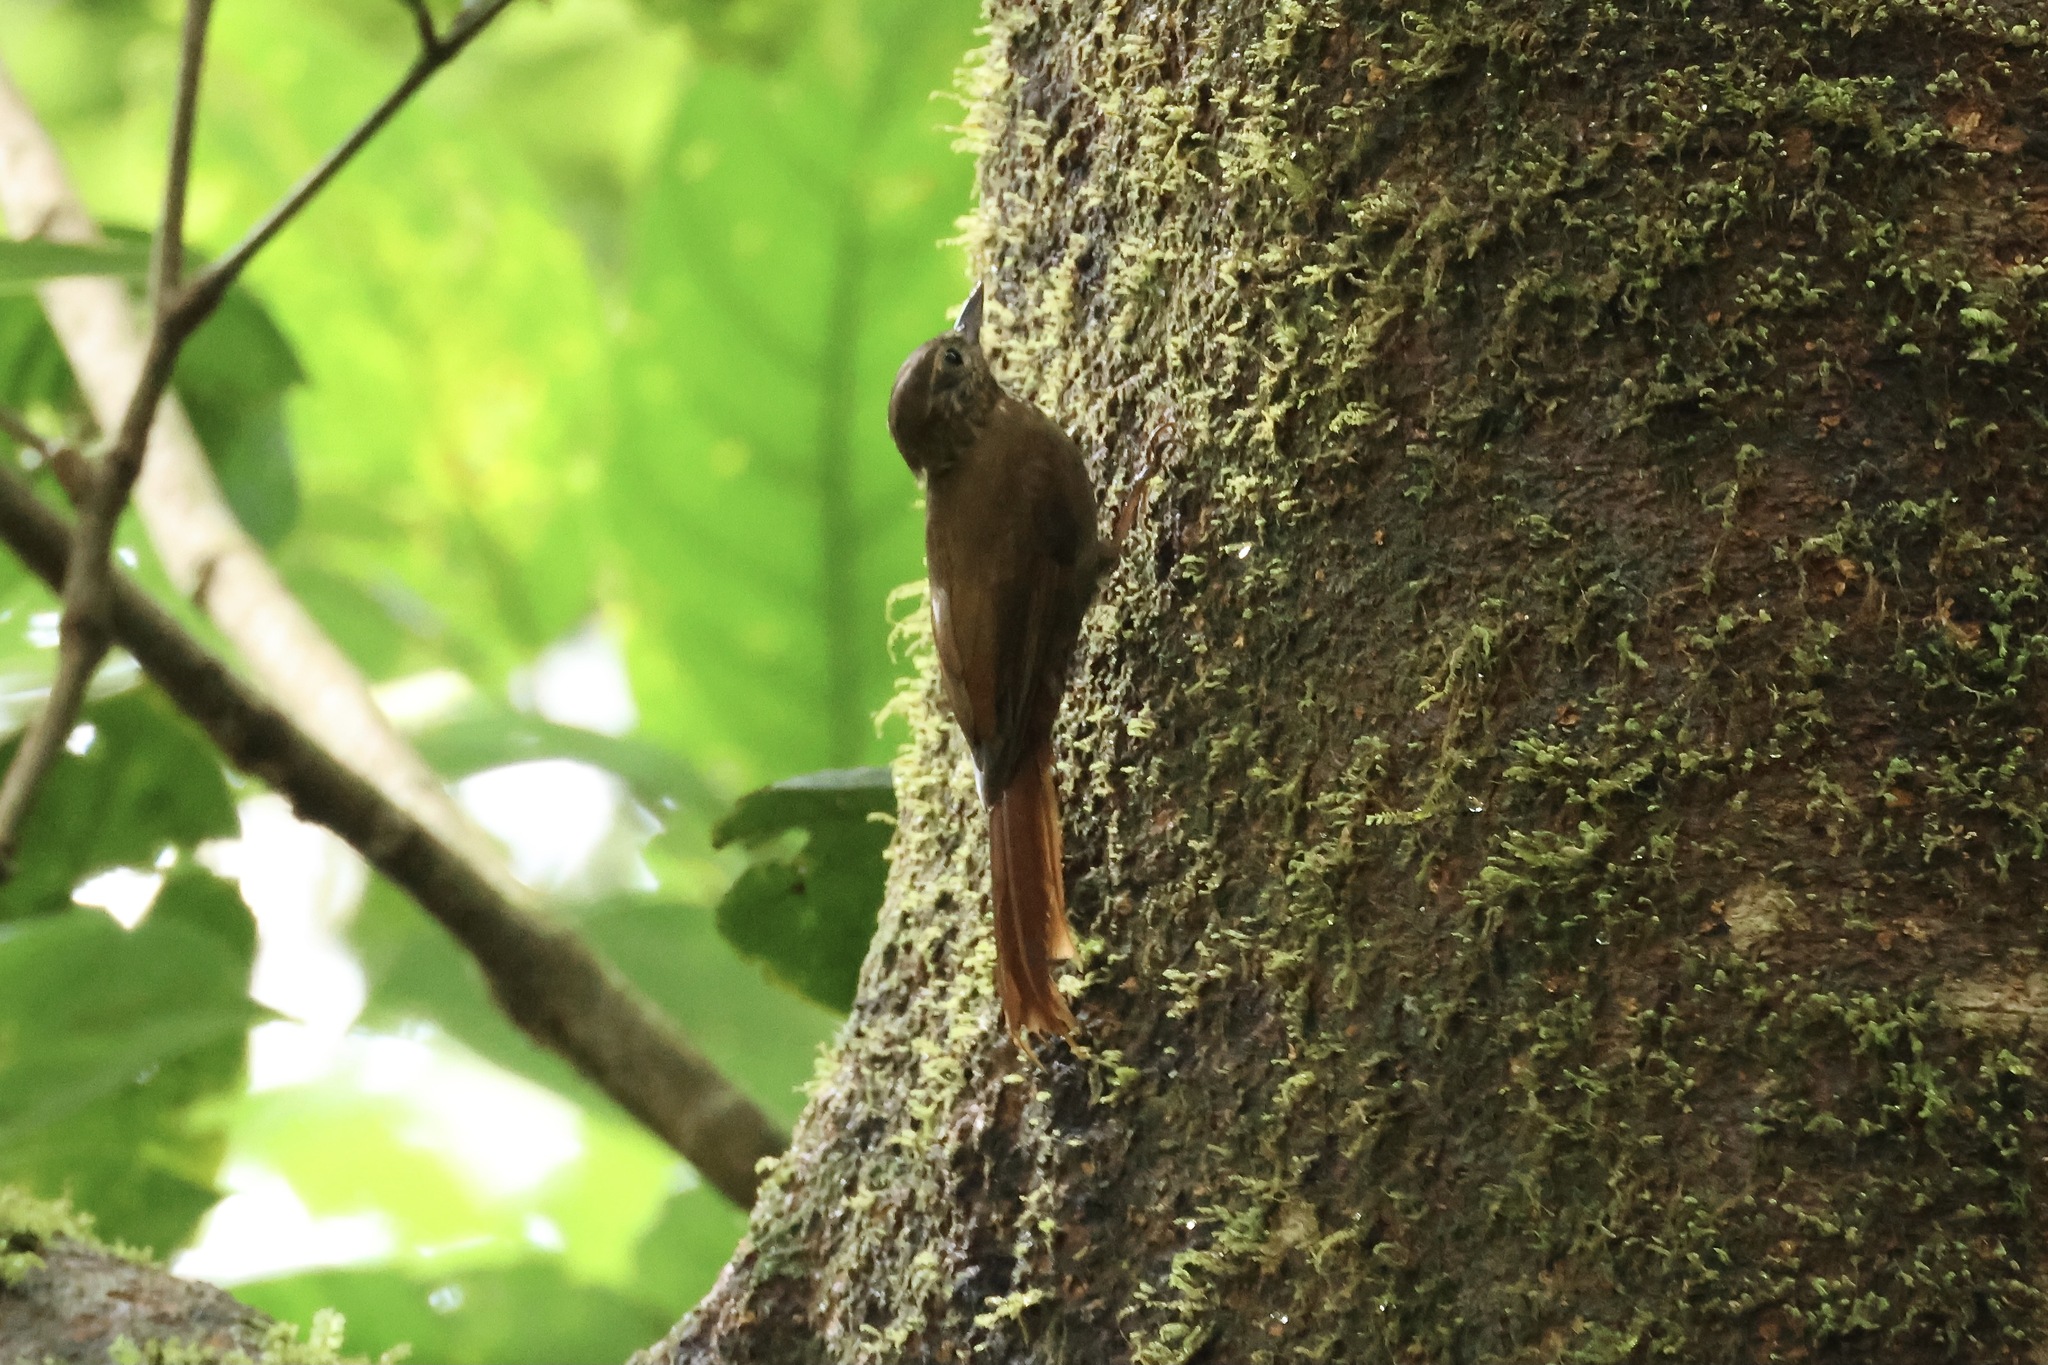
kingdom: Animalia
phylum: Chordata
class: Aves
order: Passeriformes
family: Furnariidae
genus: Glyphorynchus
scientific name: Glyphorynchus spirurus
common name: Wedge-billed woodcreeper
